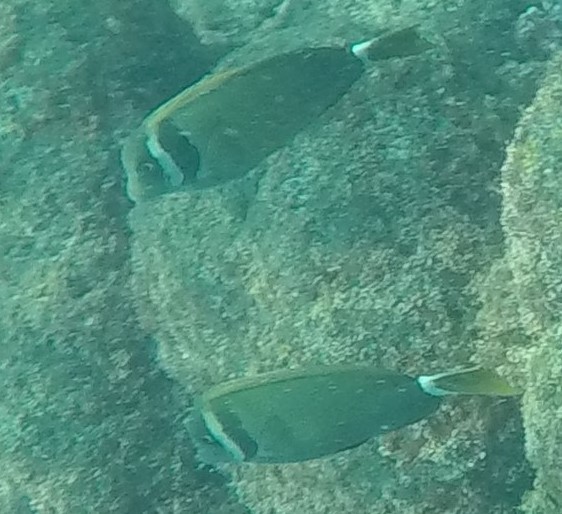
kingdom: Animalia
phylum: Chordata
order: Perciformes
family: Acanthuridae
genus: Acanthurus
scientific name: Acanthurus leucopareius
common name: Head-band surgeonfish
